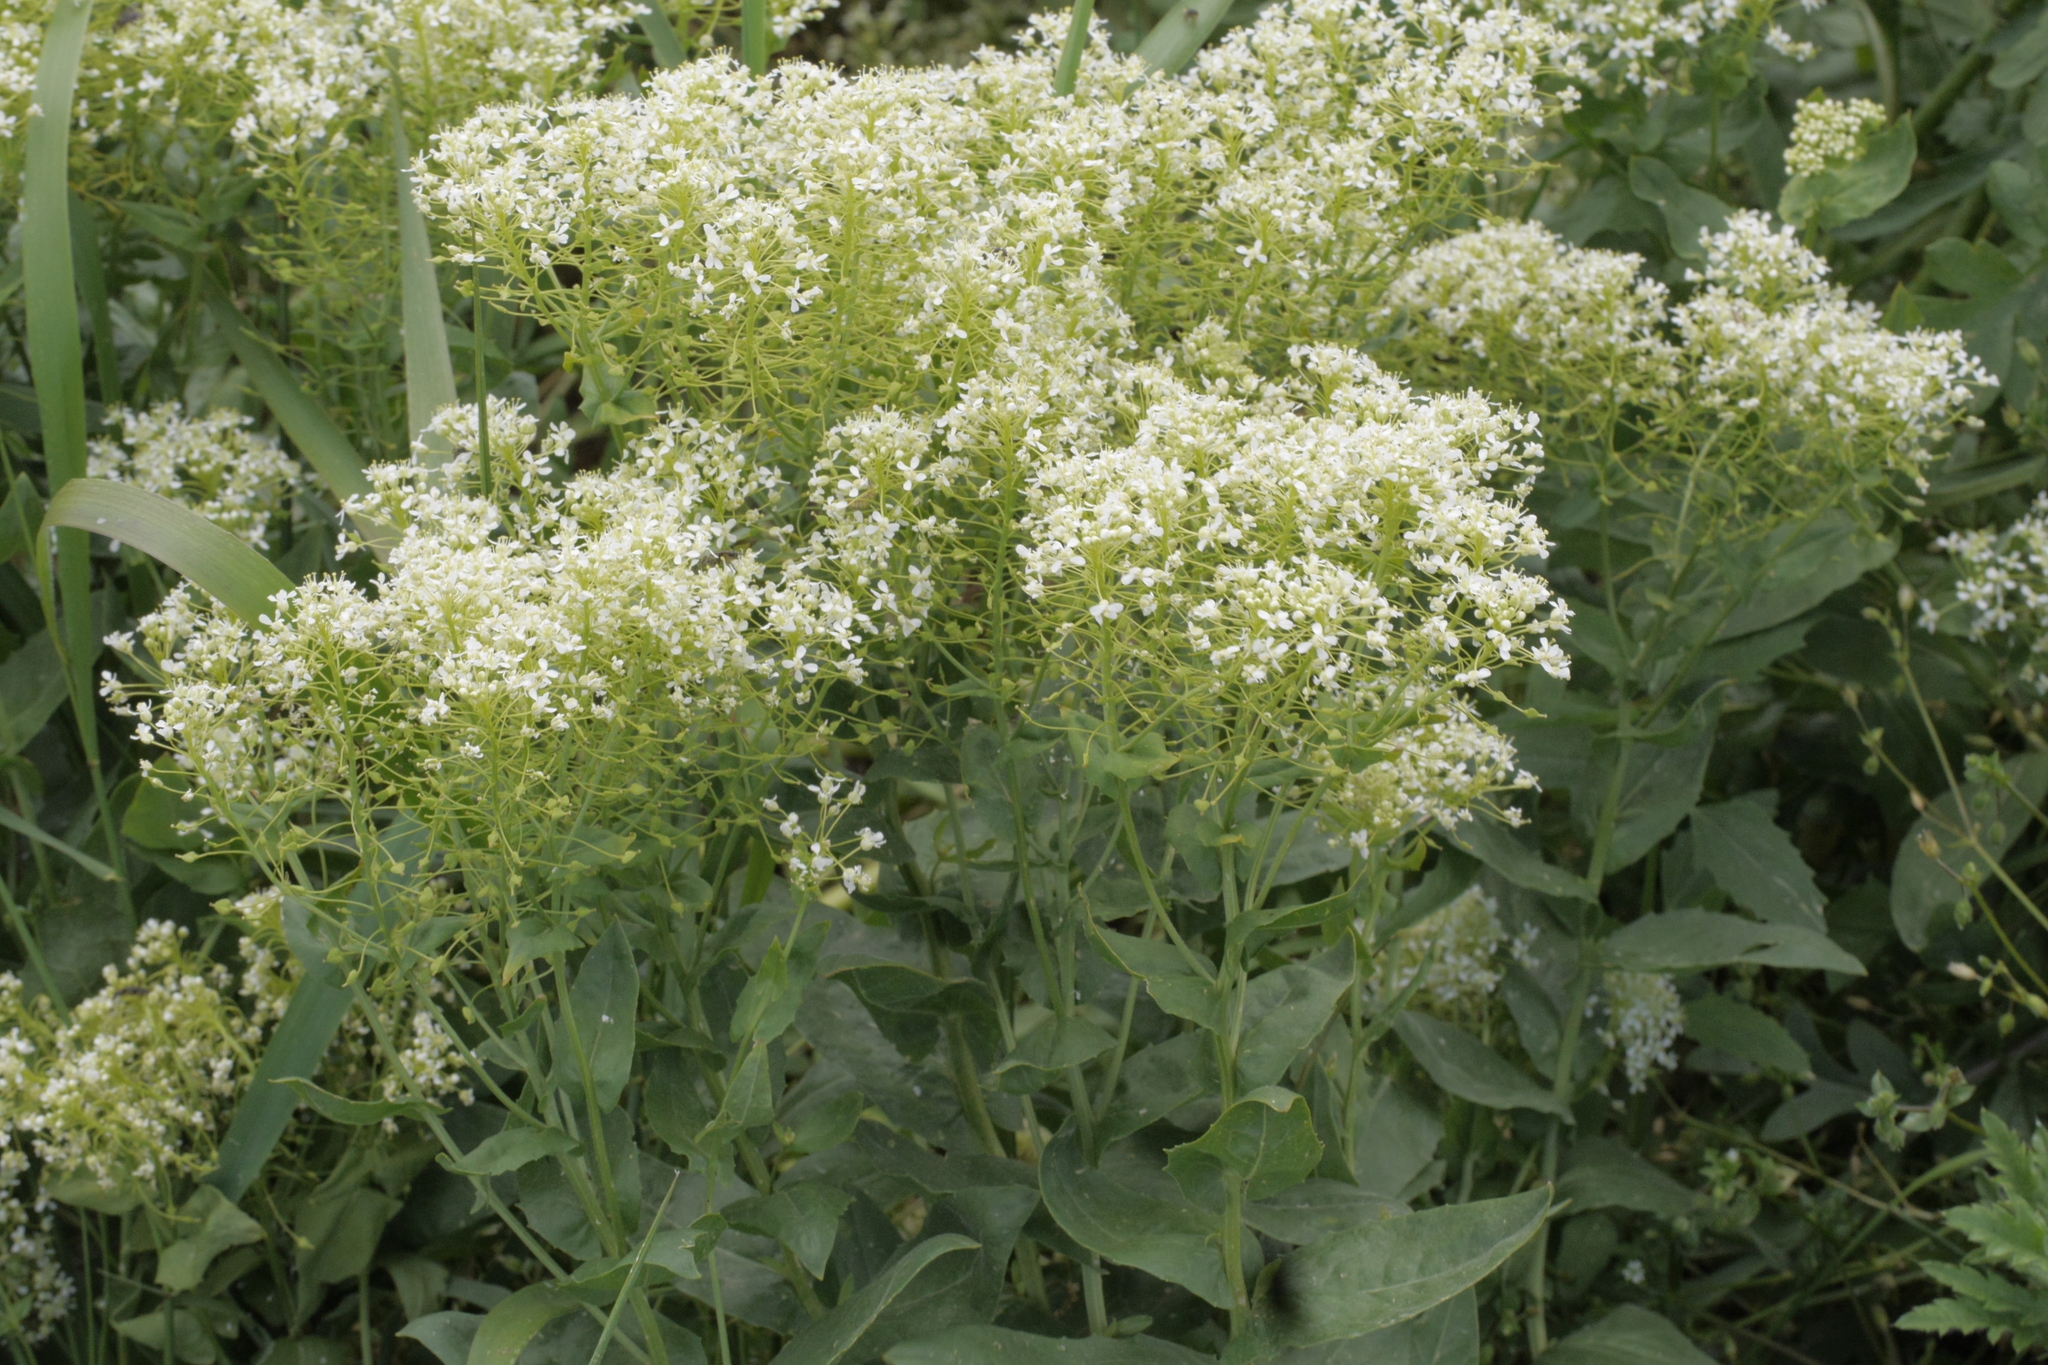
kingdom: Plantae
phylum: Tracheophyta
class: Magnoliopsida
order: Brassicales
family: Brassicaceae
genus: Lepidium
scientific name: Lepidium draba
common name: Hoary cress
